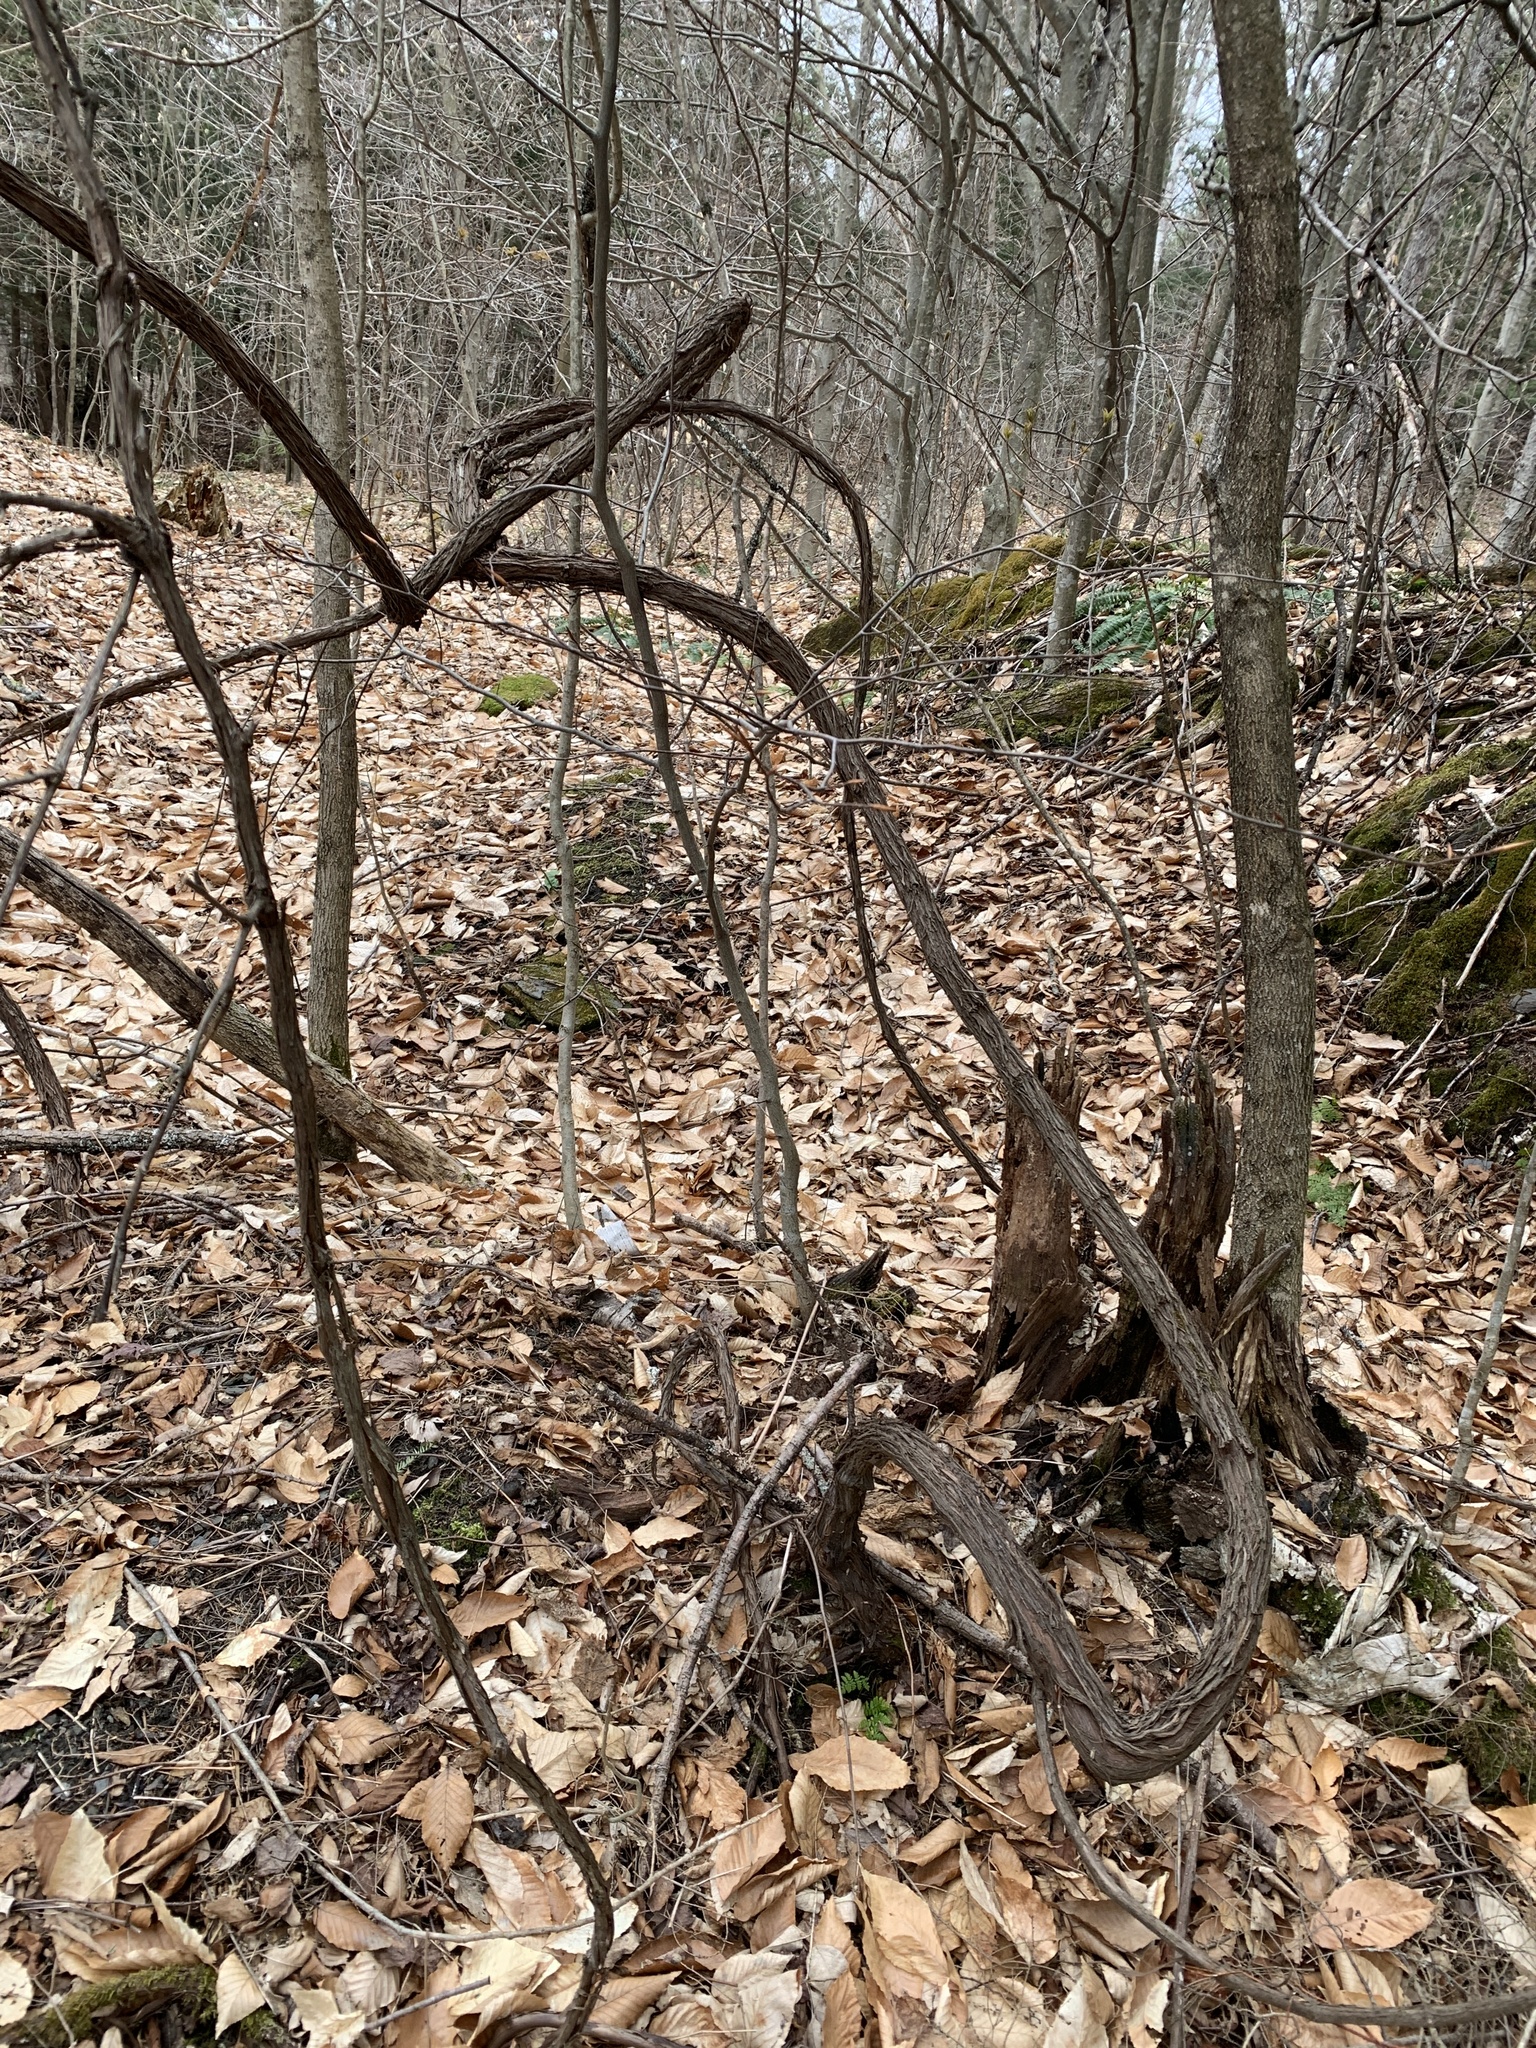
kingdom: Plantae
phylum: Tracheophyta
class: Magnoliopsida
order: Vitales
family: Vitaceae
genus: Vitis
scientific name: Vitis
